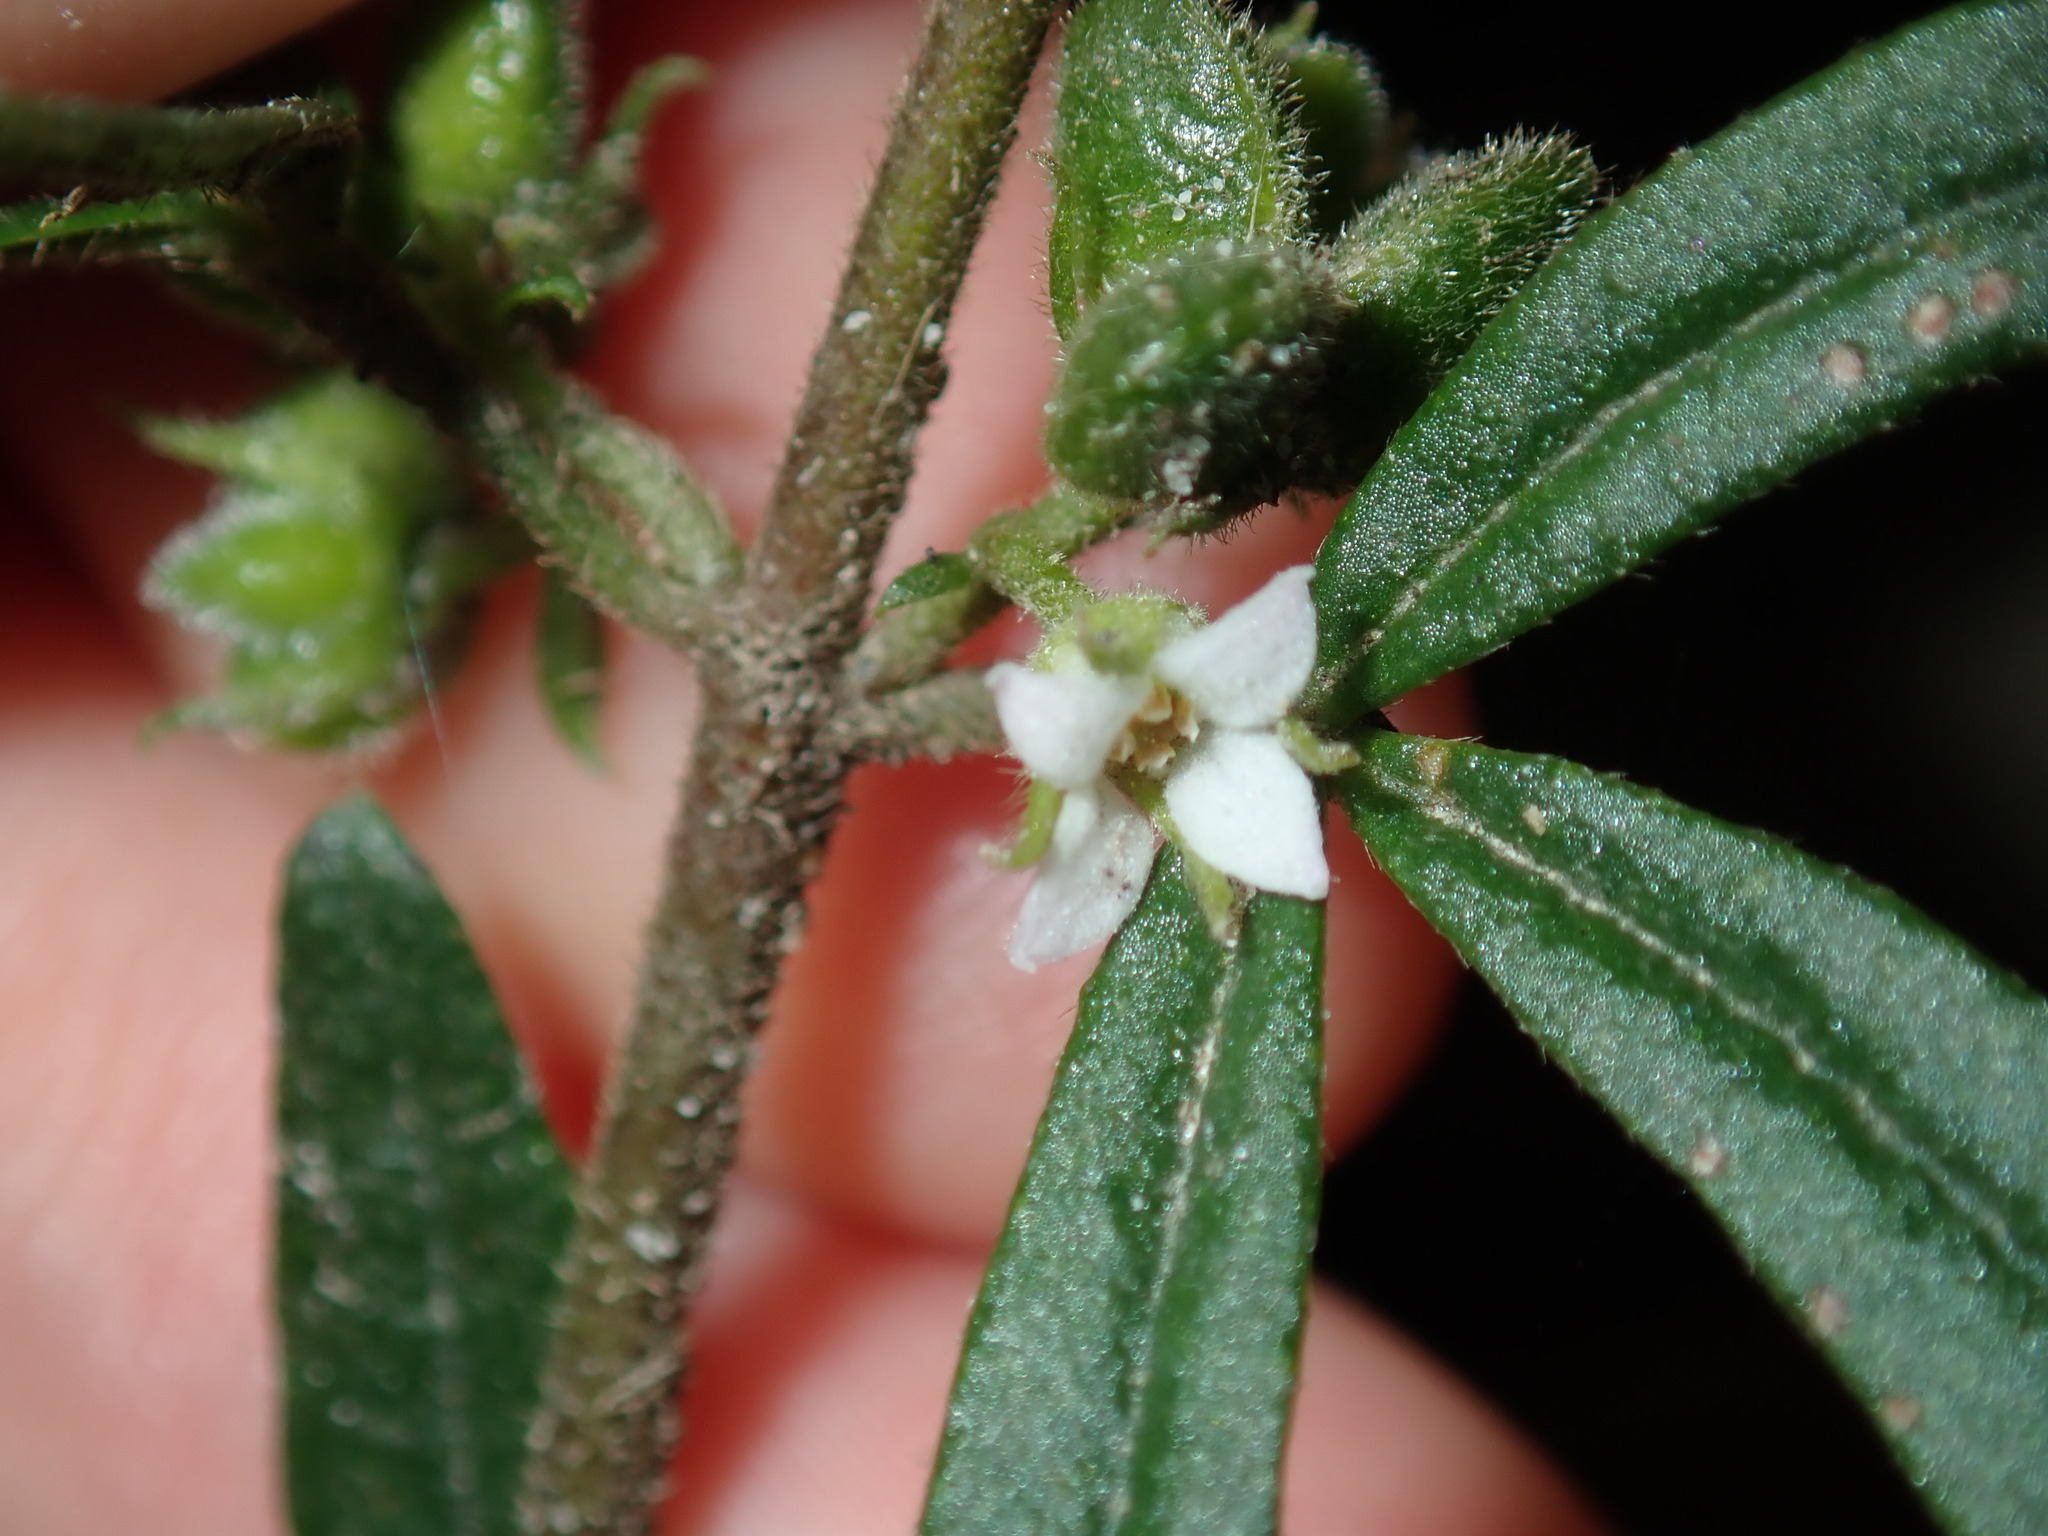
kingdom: Plantae
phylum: Tracheophyta
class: Magnoliopsida
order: Sapindales
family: Rutaceae
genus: Zieria
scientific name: Zieria smithii
